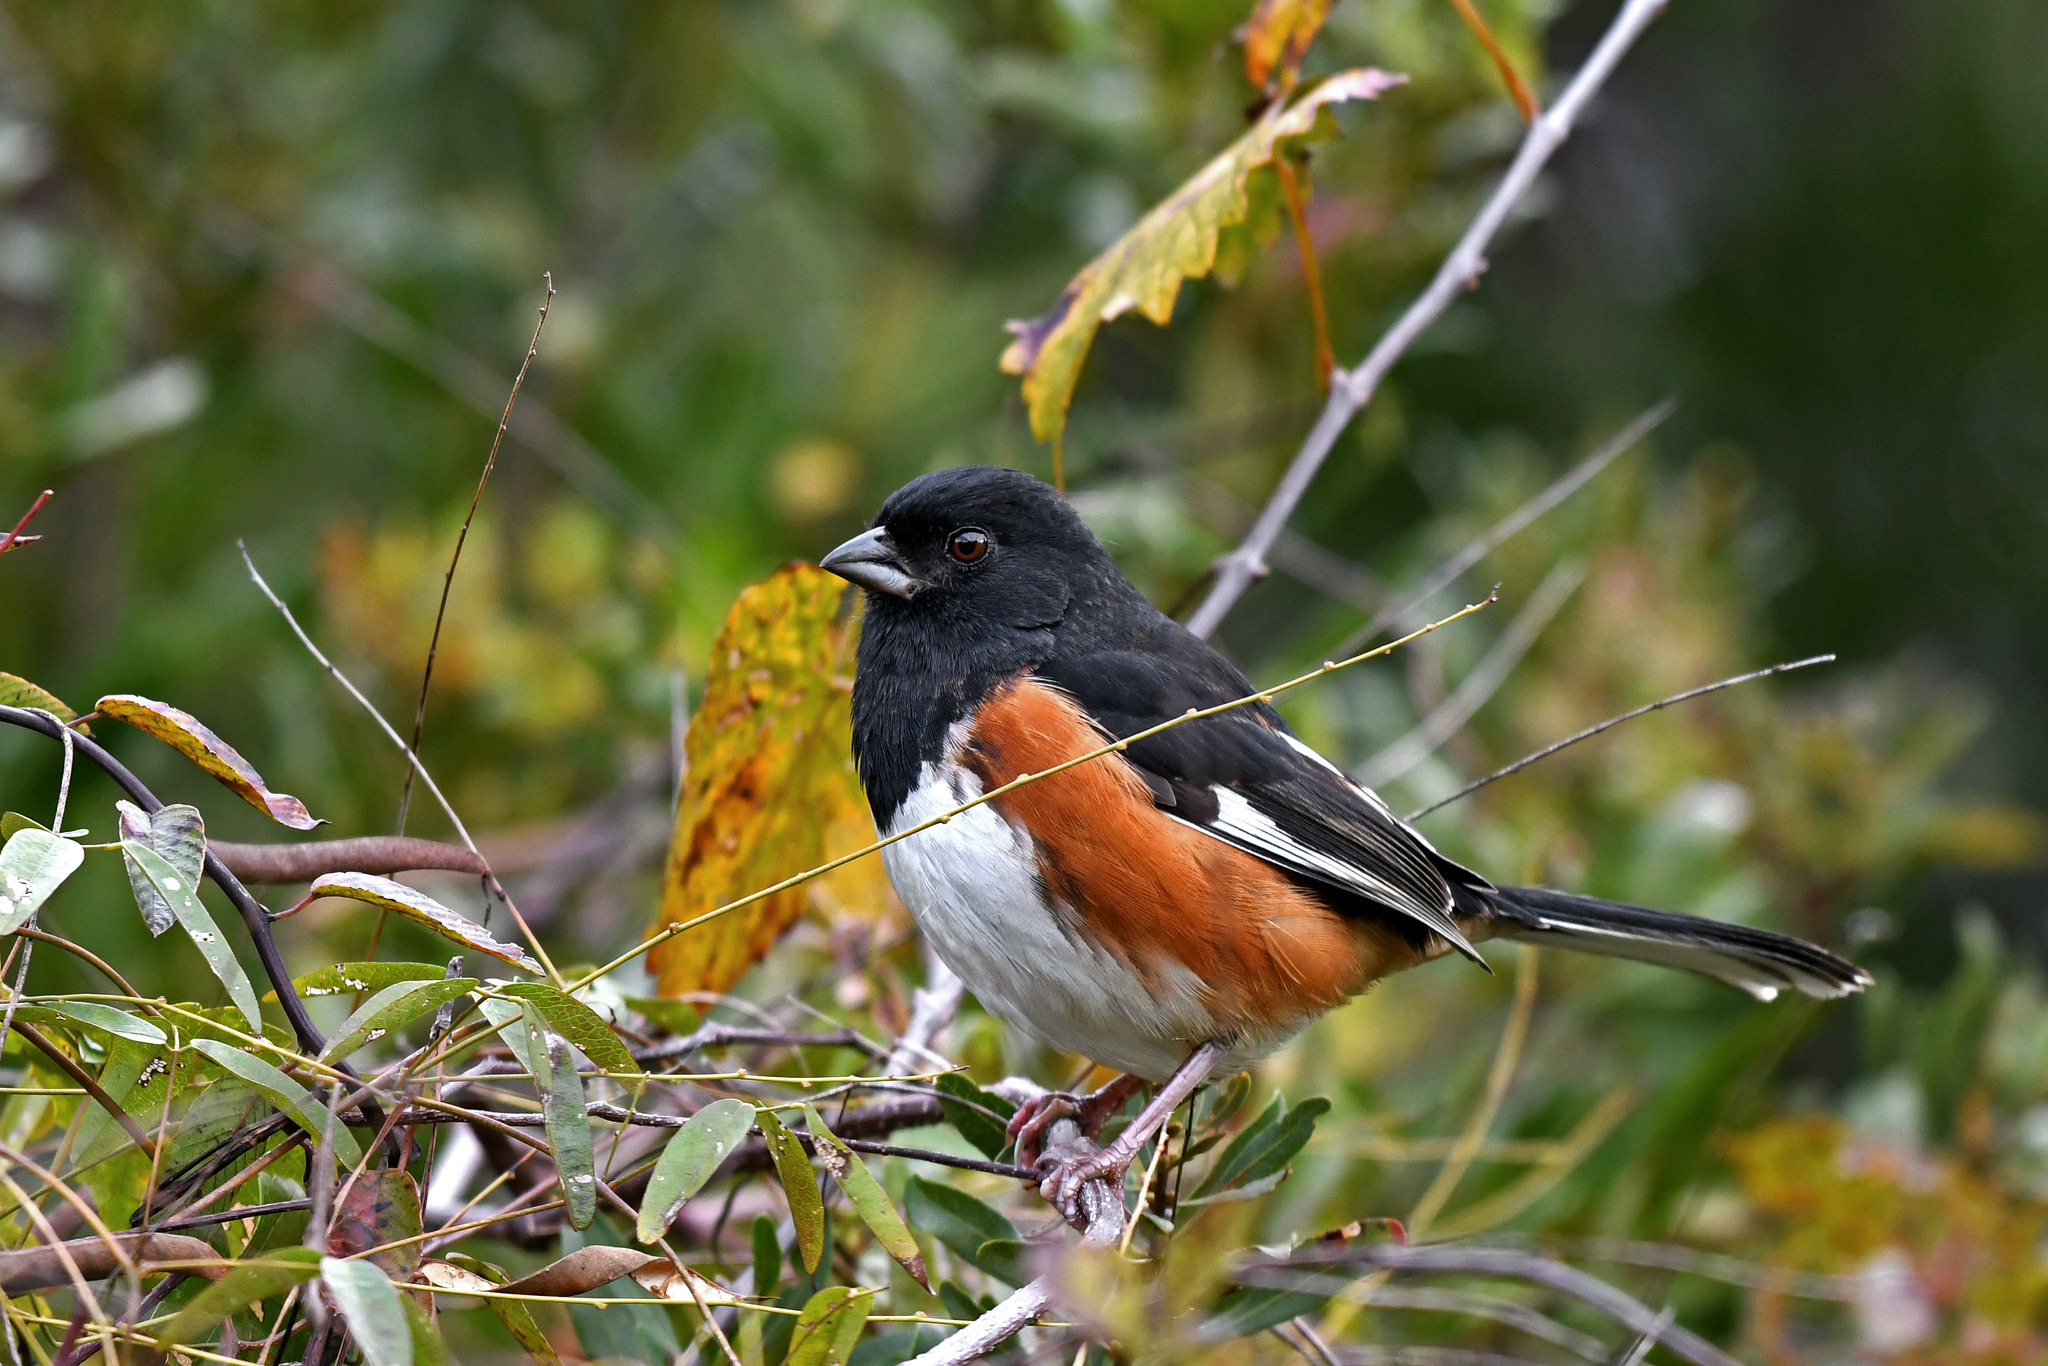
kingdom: Animalia
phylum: Chordata
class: Aves
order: Passeriformes
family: Passerellidae
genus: Pipilo
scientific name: Pipilo erythrophthalmus
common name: Eastern towhee
